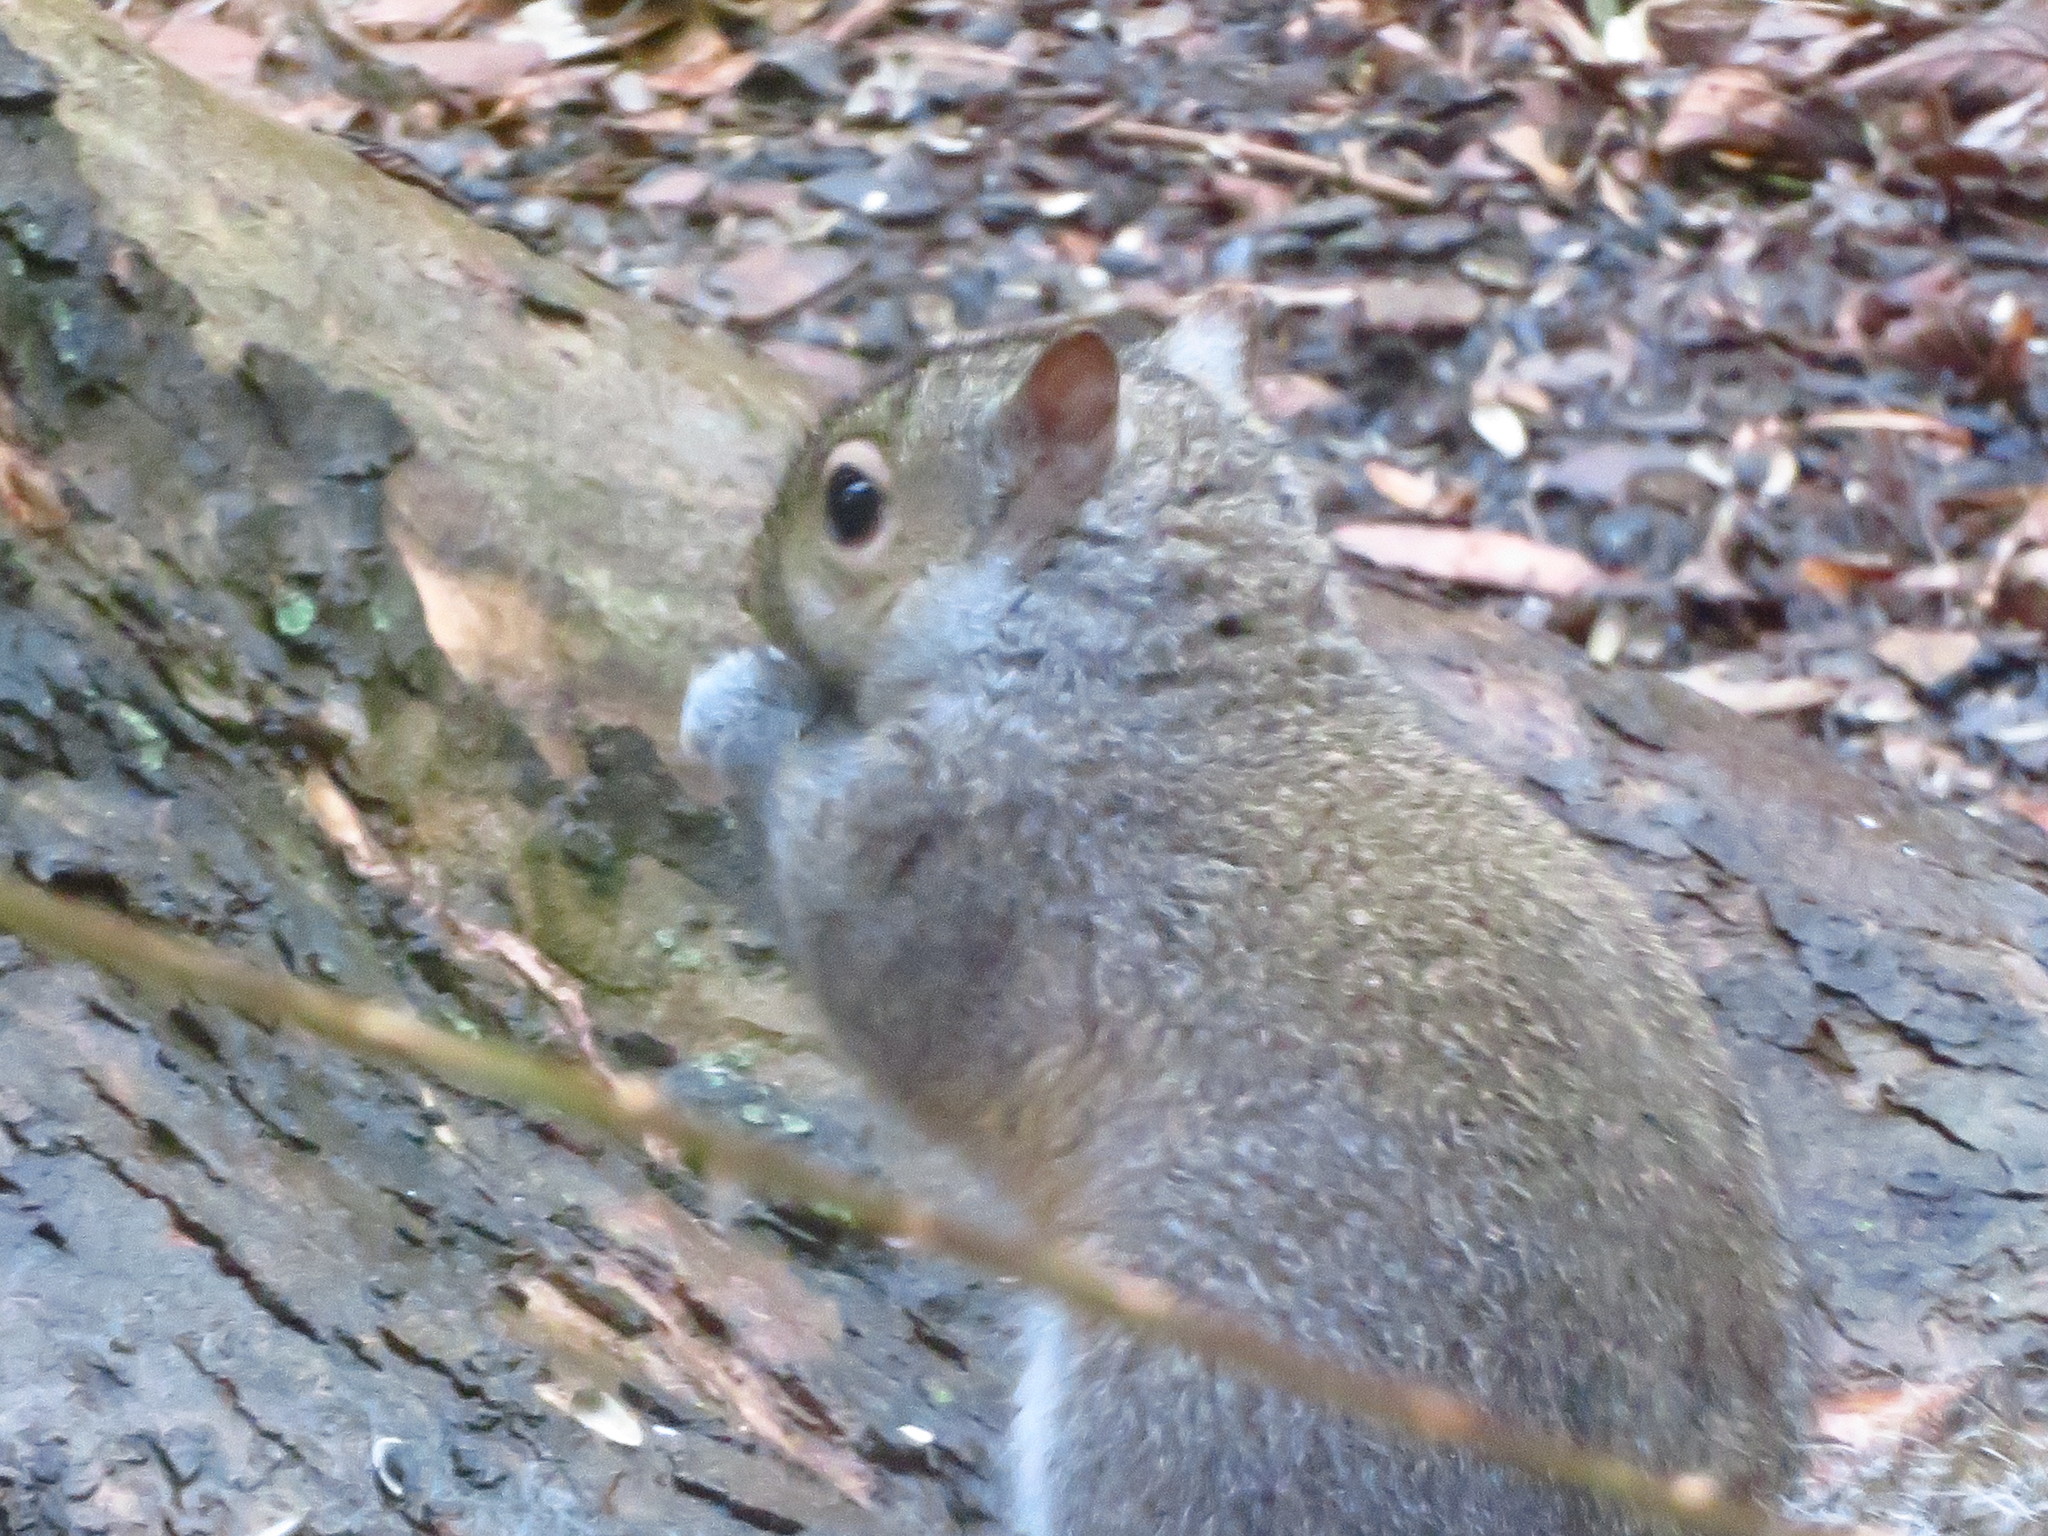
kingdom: Animalia
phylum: Chordata
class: Mammalia
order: Rodentia
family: Sciuridae
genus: Sciurus
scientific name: Sciurus carolinensis
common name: Eastern gray squirrel
